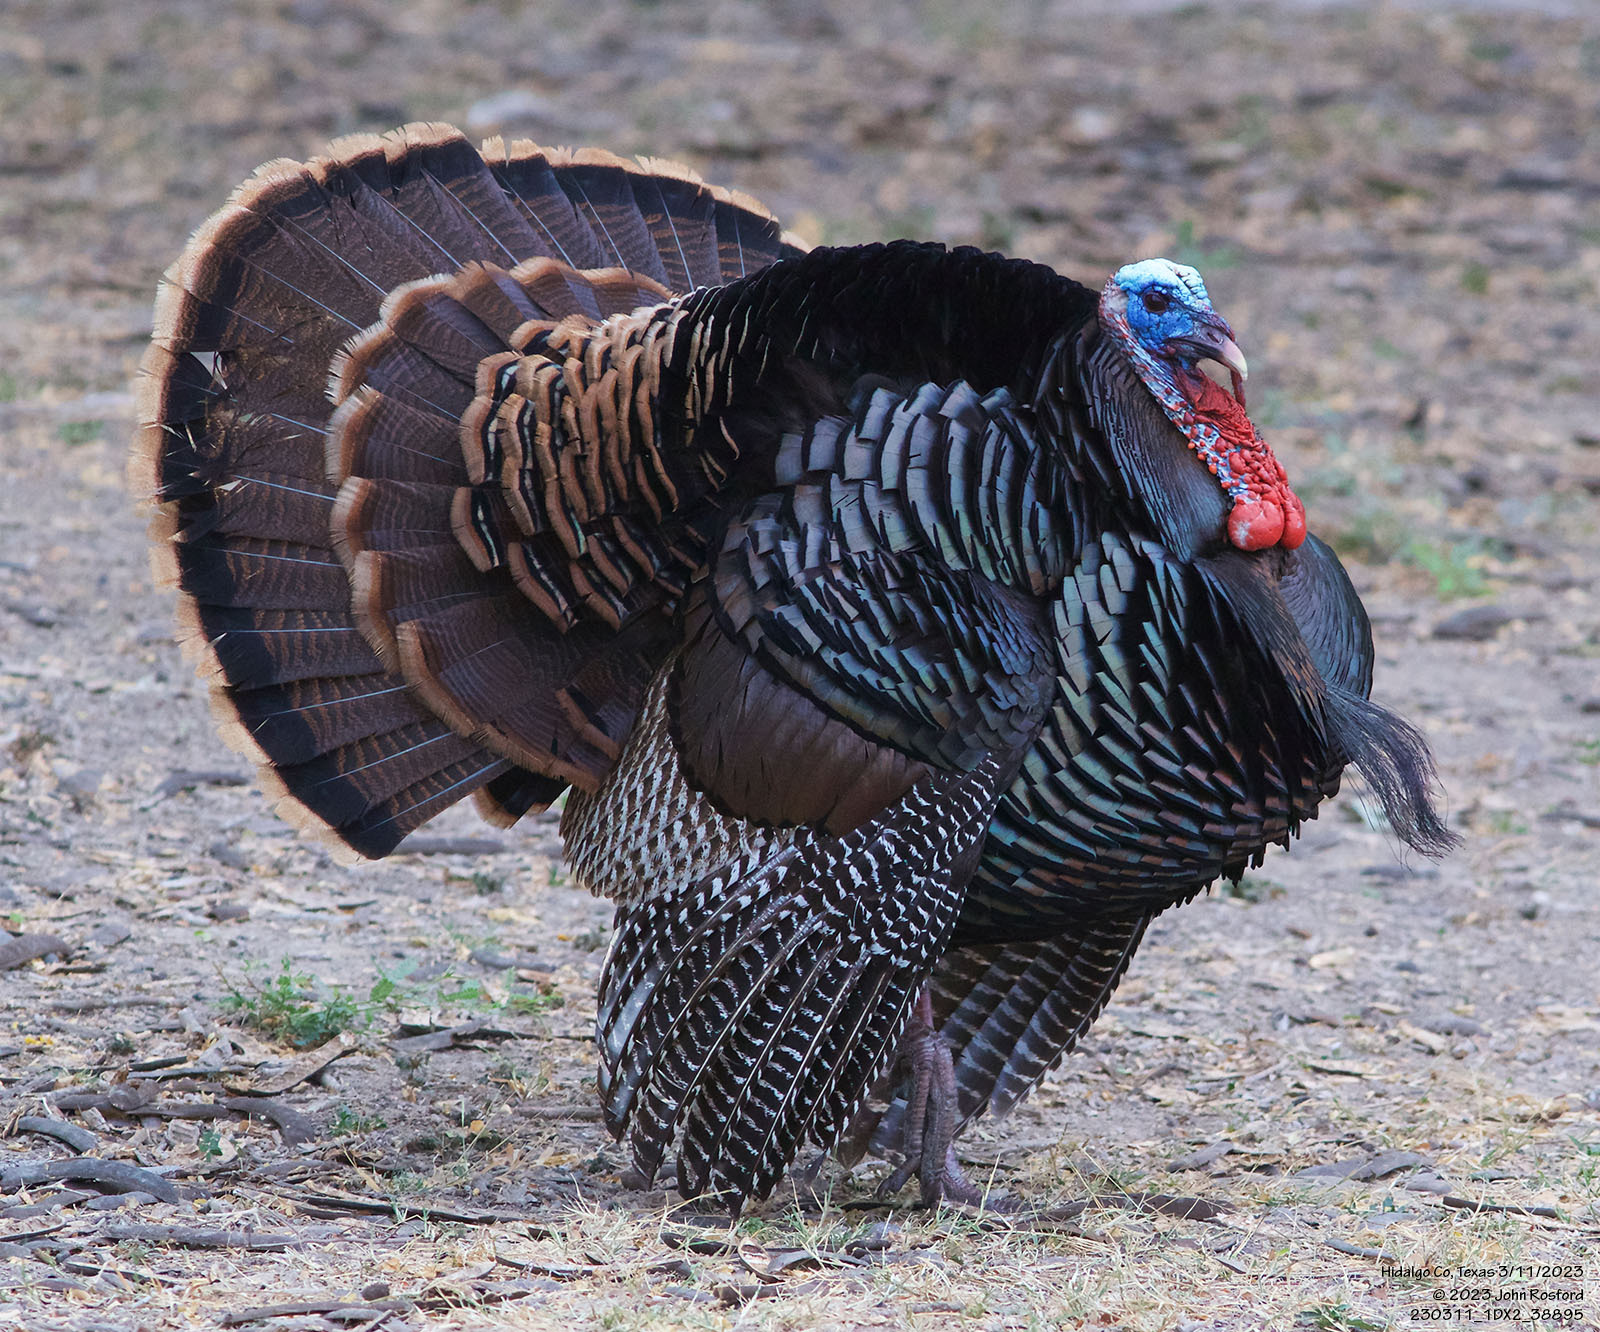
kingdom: Animalia
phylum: Chordata
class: Aves
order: Galliformes
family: Phasianidae
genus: Meleagris
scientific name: Meleagris gallopavo
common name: Wild turkey
